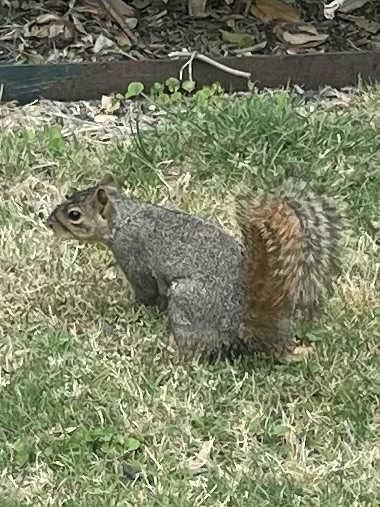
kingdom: Animalia
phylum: Chordata
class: Mammalia
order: Rodentia
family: Sciuridae
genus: Sciurus
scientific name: Sciurus niger
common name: Fox squirrel
